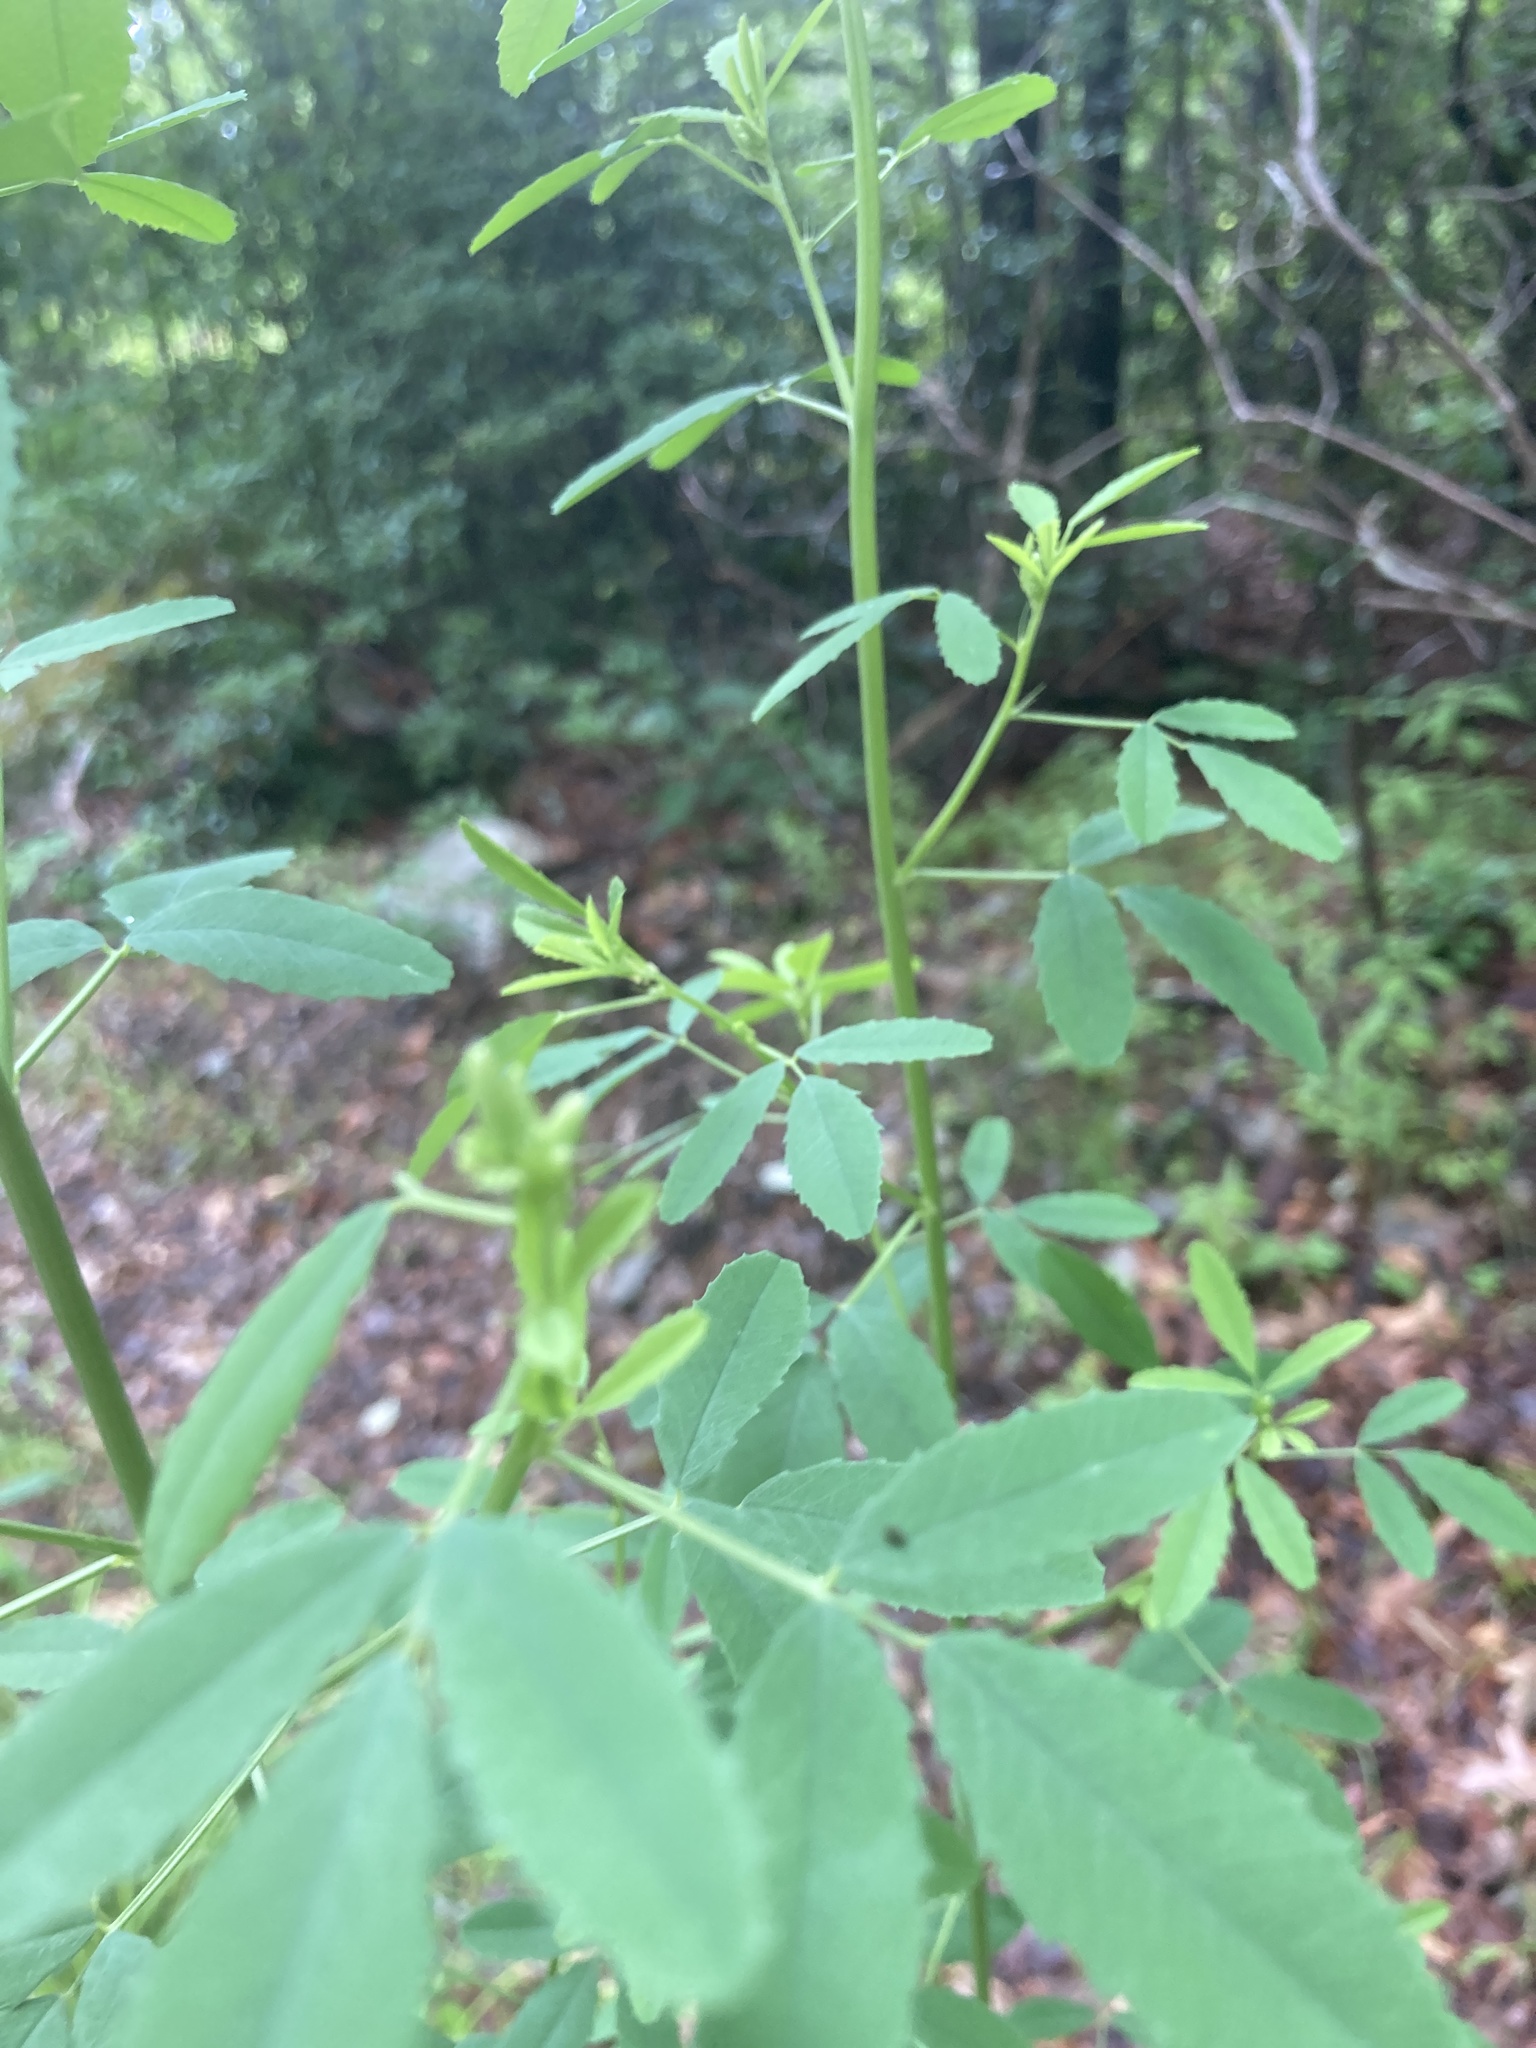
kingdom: Plantae
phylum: Tracheophyta
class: Magnoliopsida
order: Fabales
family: Fabaceae
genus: Melilotus
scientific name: Melilotus albus
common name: White melilot
